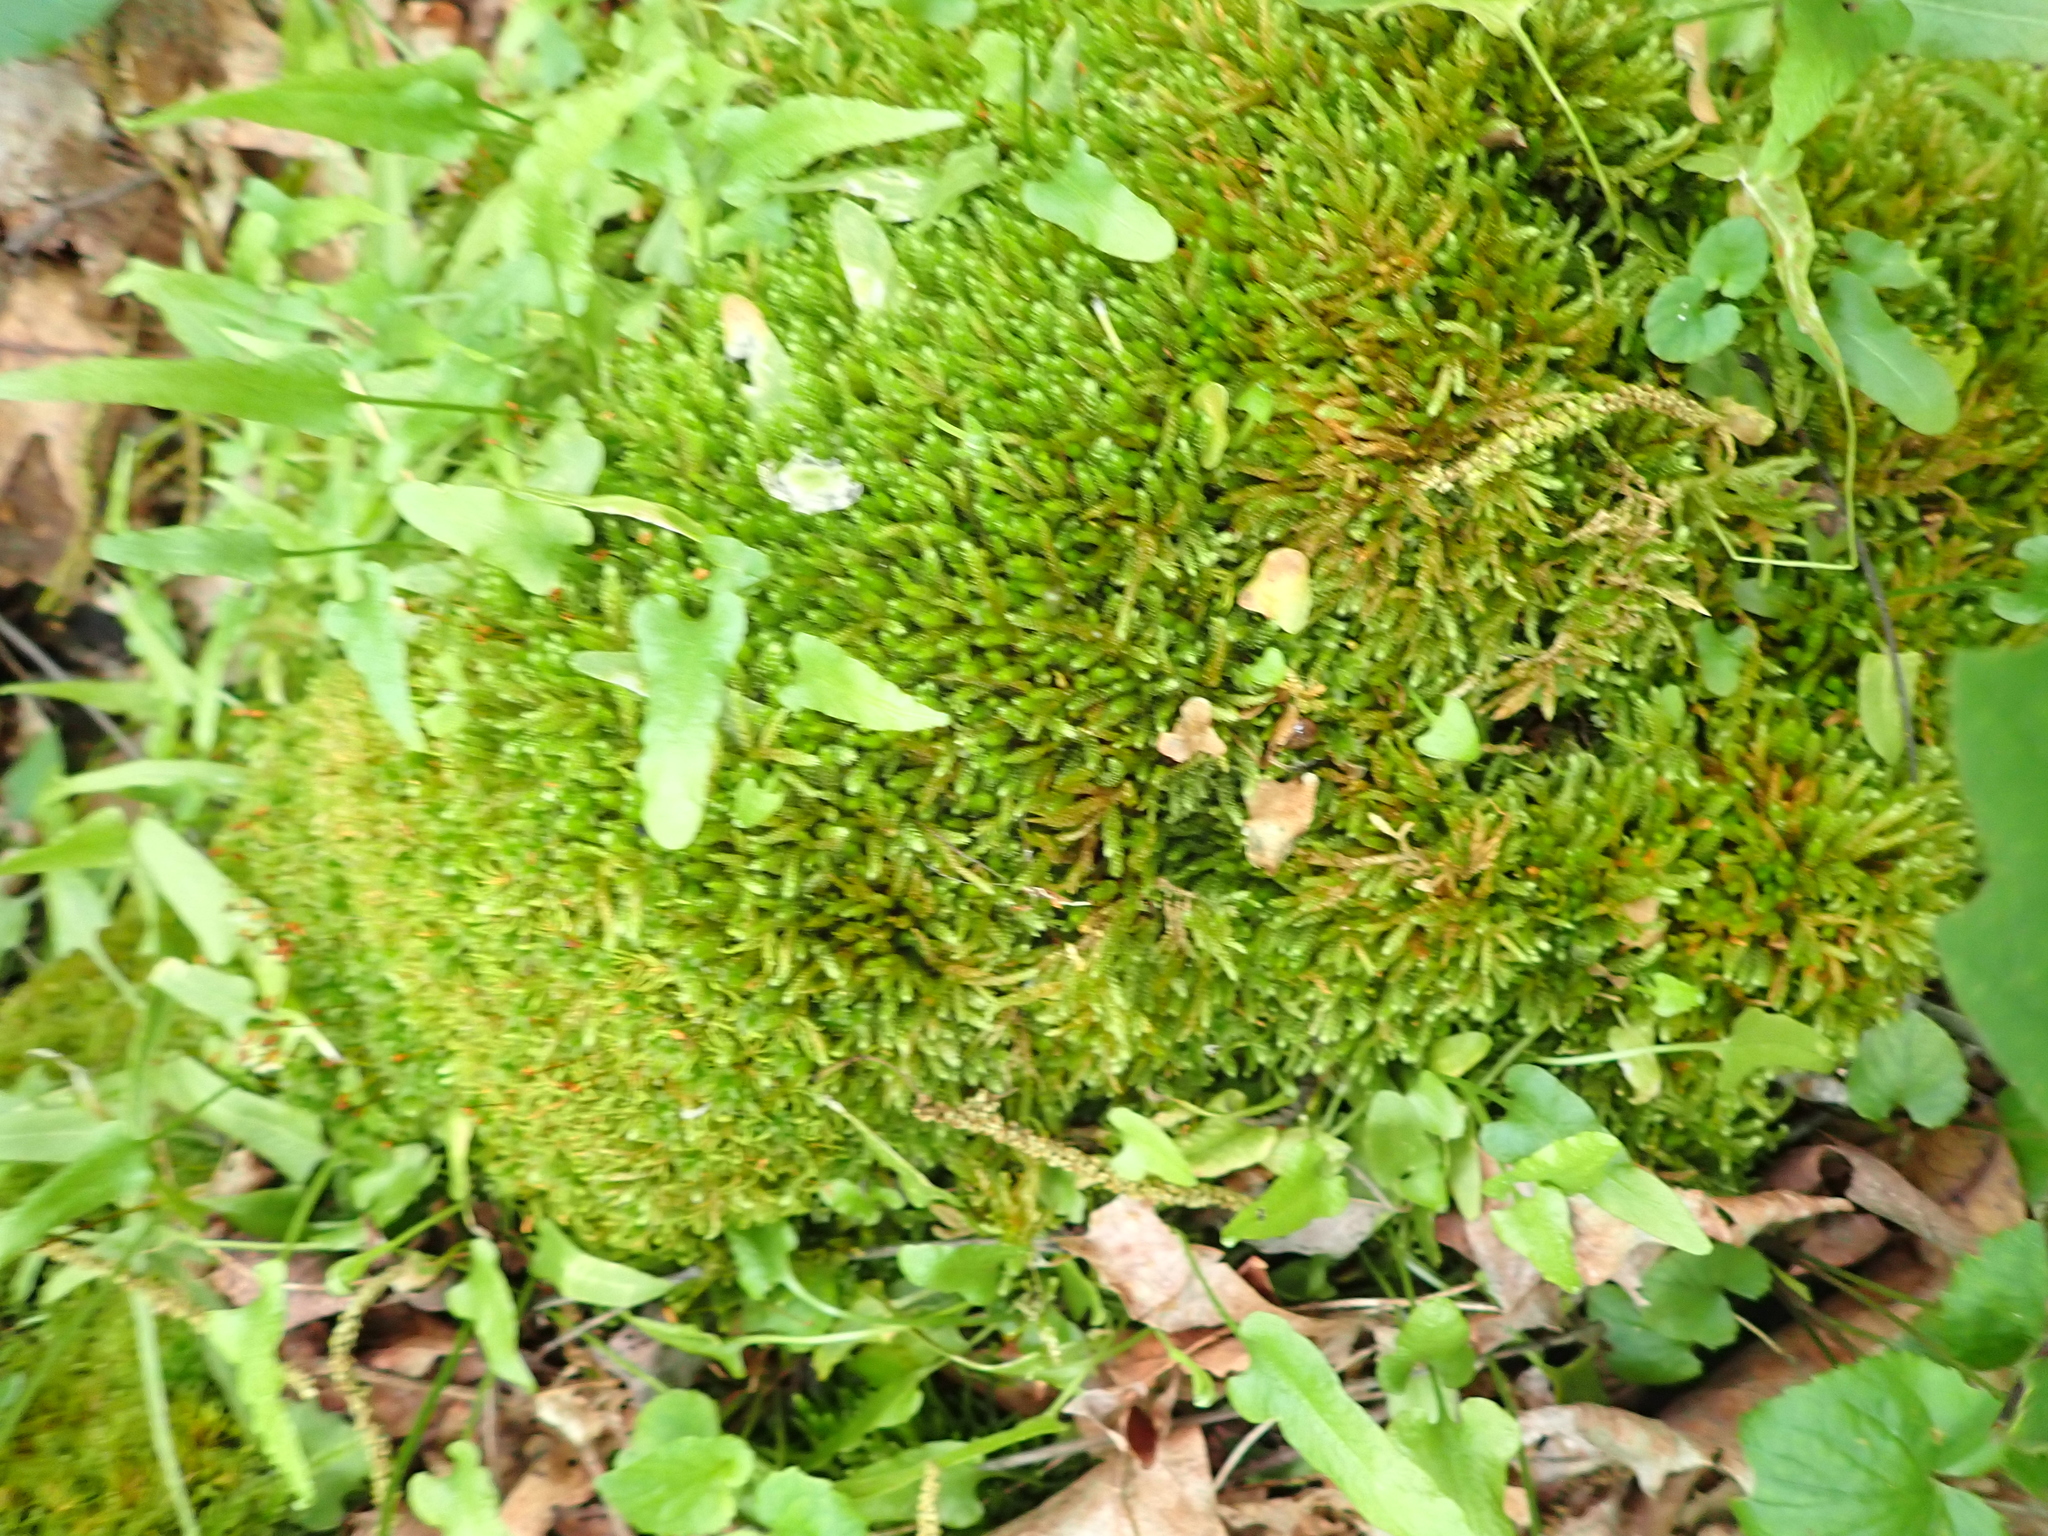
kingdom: Plantae
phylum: Tracheophyta
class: Polypodiopsida
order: Polypodiales
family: Aspleniaceae
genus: Asplenium
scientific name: Asplenium rhizophyllum
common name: Walking fern
